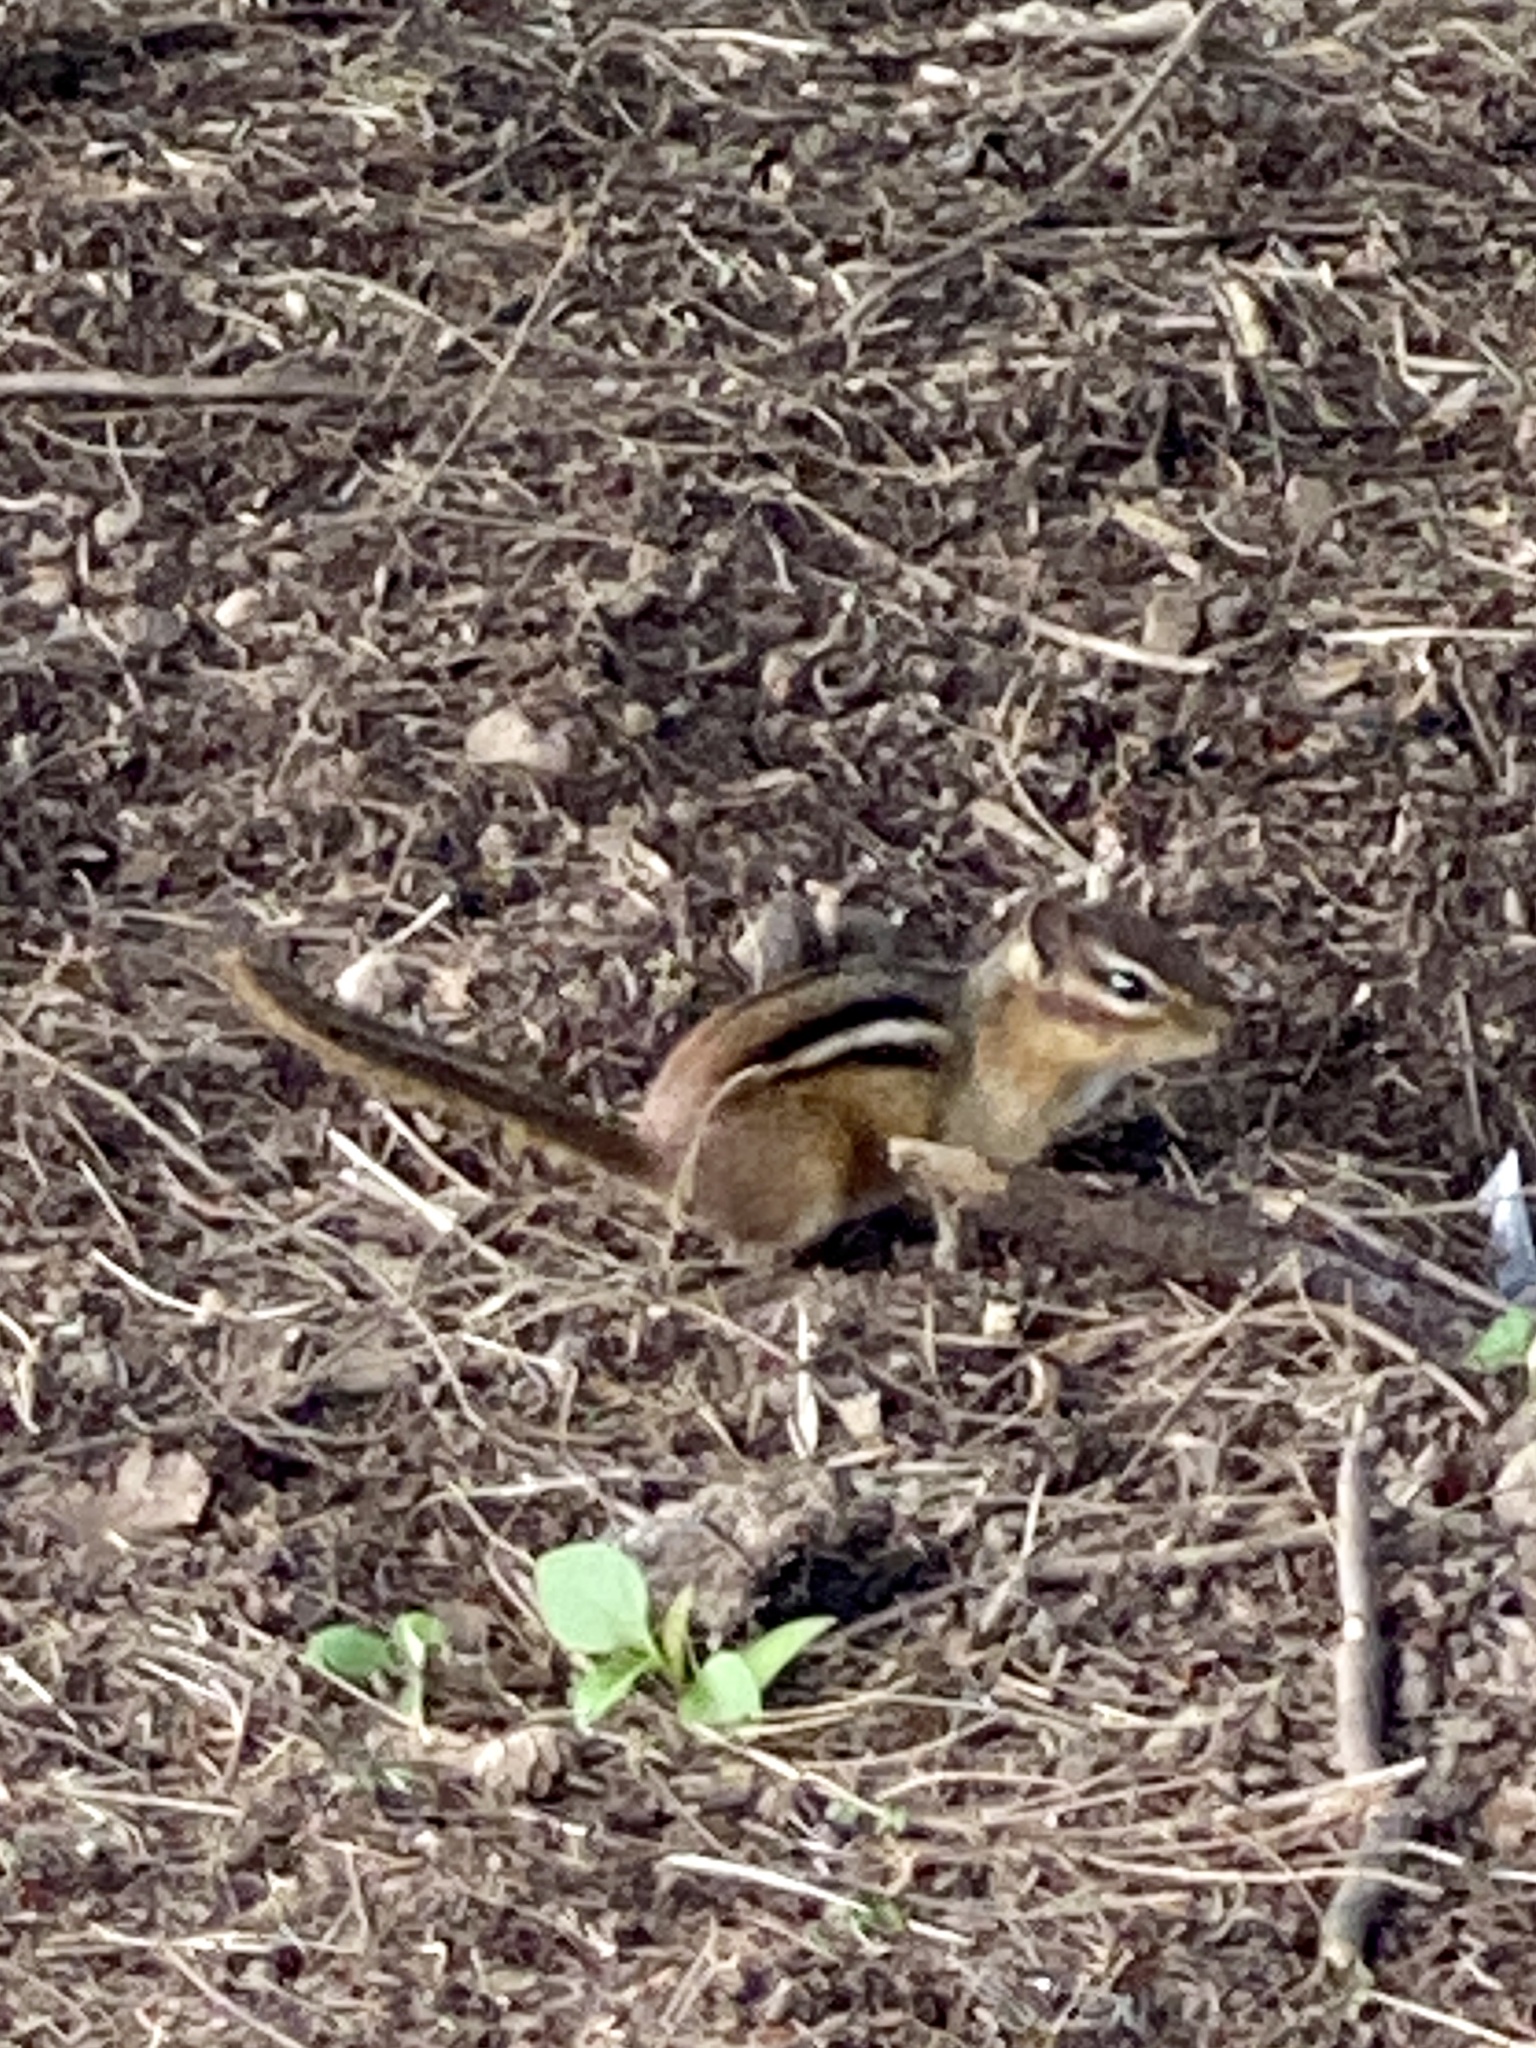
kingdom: Animalia
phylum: Chordata
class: Mammalia
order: Rodentia
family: Sciuridae
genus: Tamias
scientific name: Tamias striatus
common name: Eastern chipmunk
